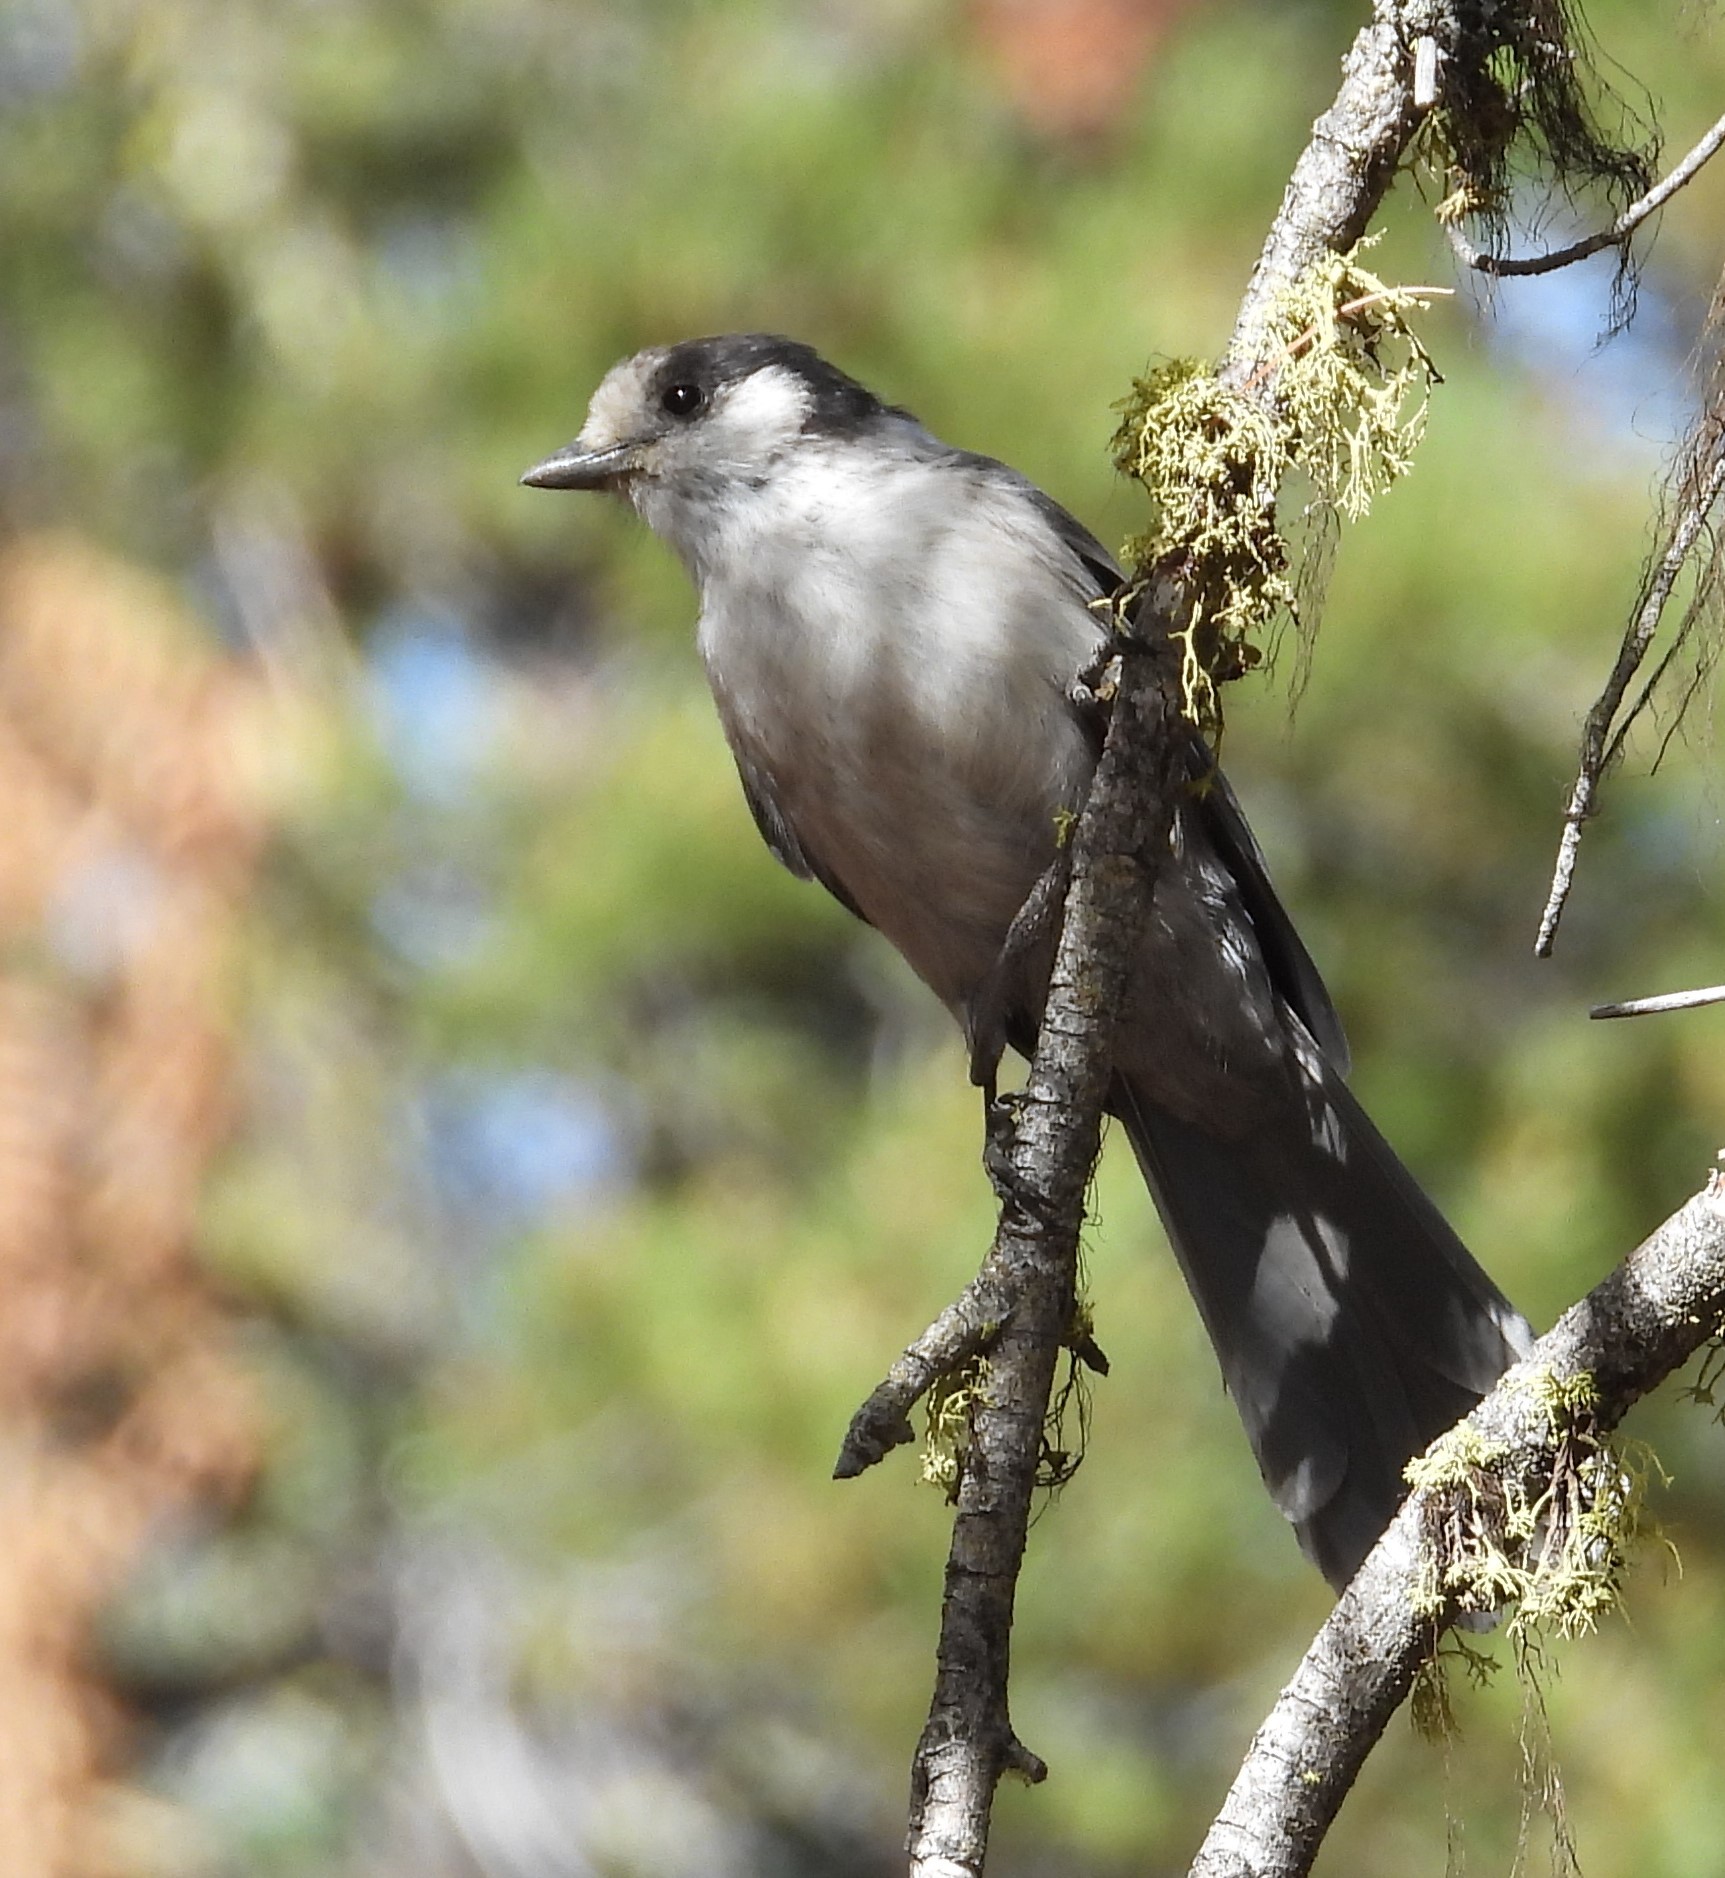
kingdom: Animalia
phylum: Chordata
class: Aves
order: Passeriformes
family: Corvidae
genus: Perisoreus
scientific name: Perisoreus canadensis
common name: Gray jay
